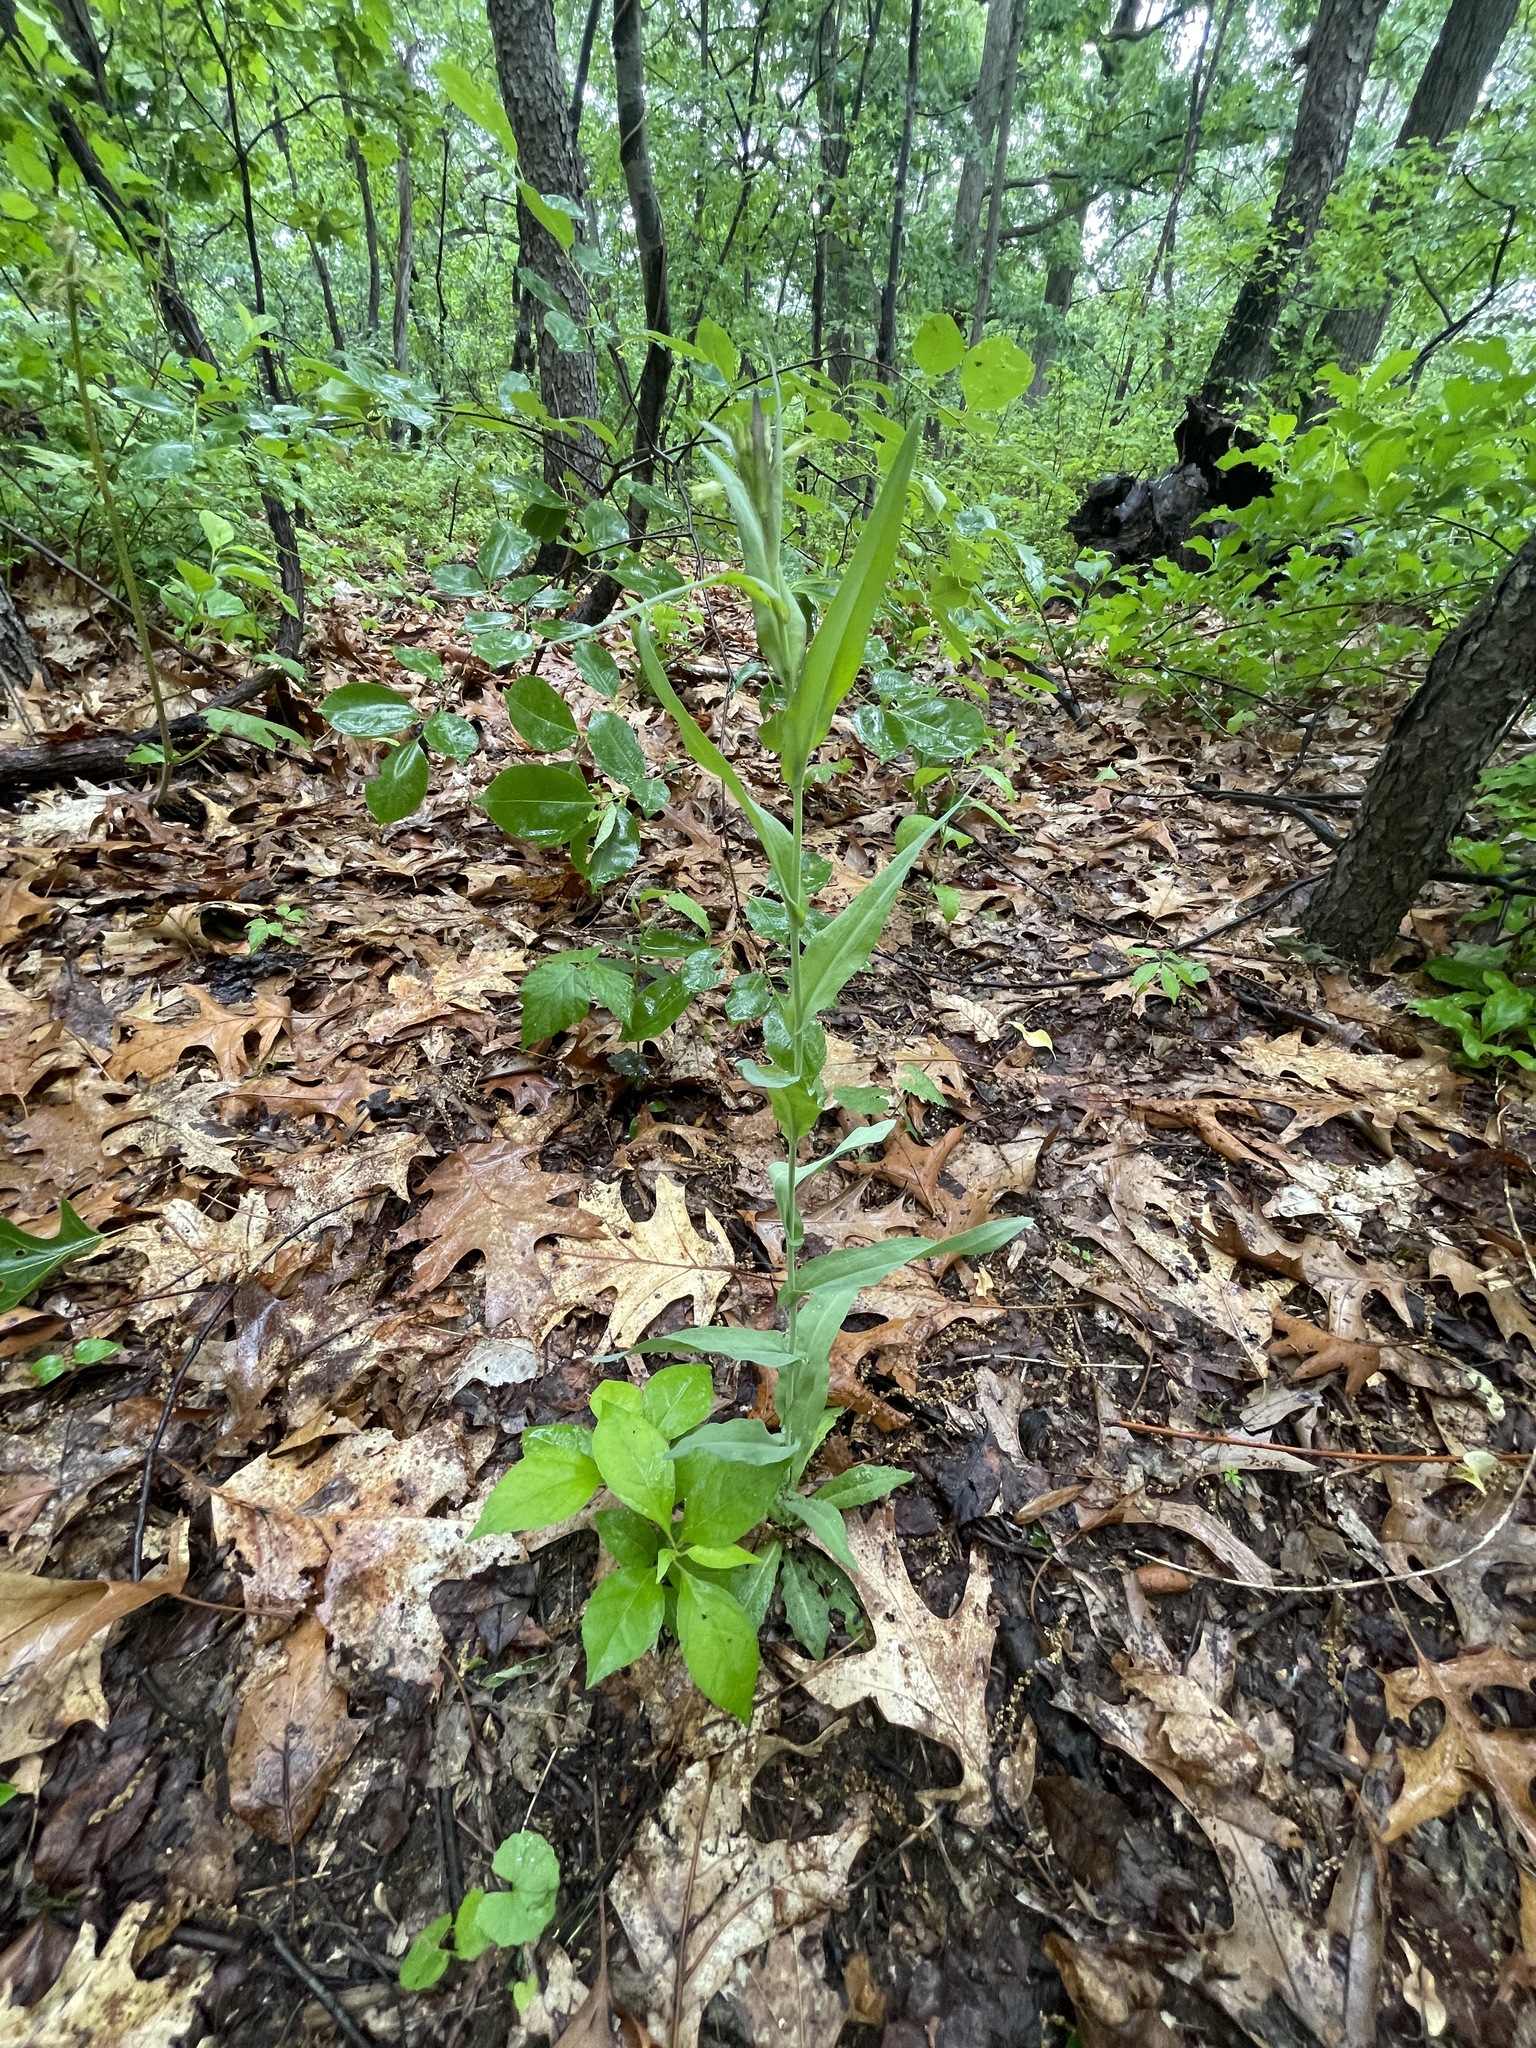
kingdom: Plantae
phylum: Tracheophyta
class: Magnoliopsida
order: Brassicales
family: Brassicaceae
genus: Borodinia
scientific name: Borodinia laevigata
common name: Smooth rockcress
